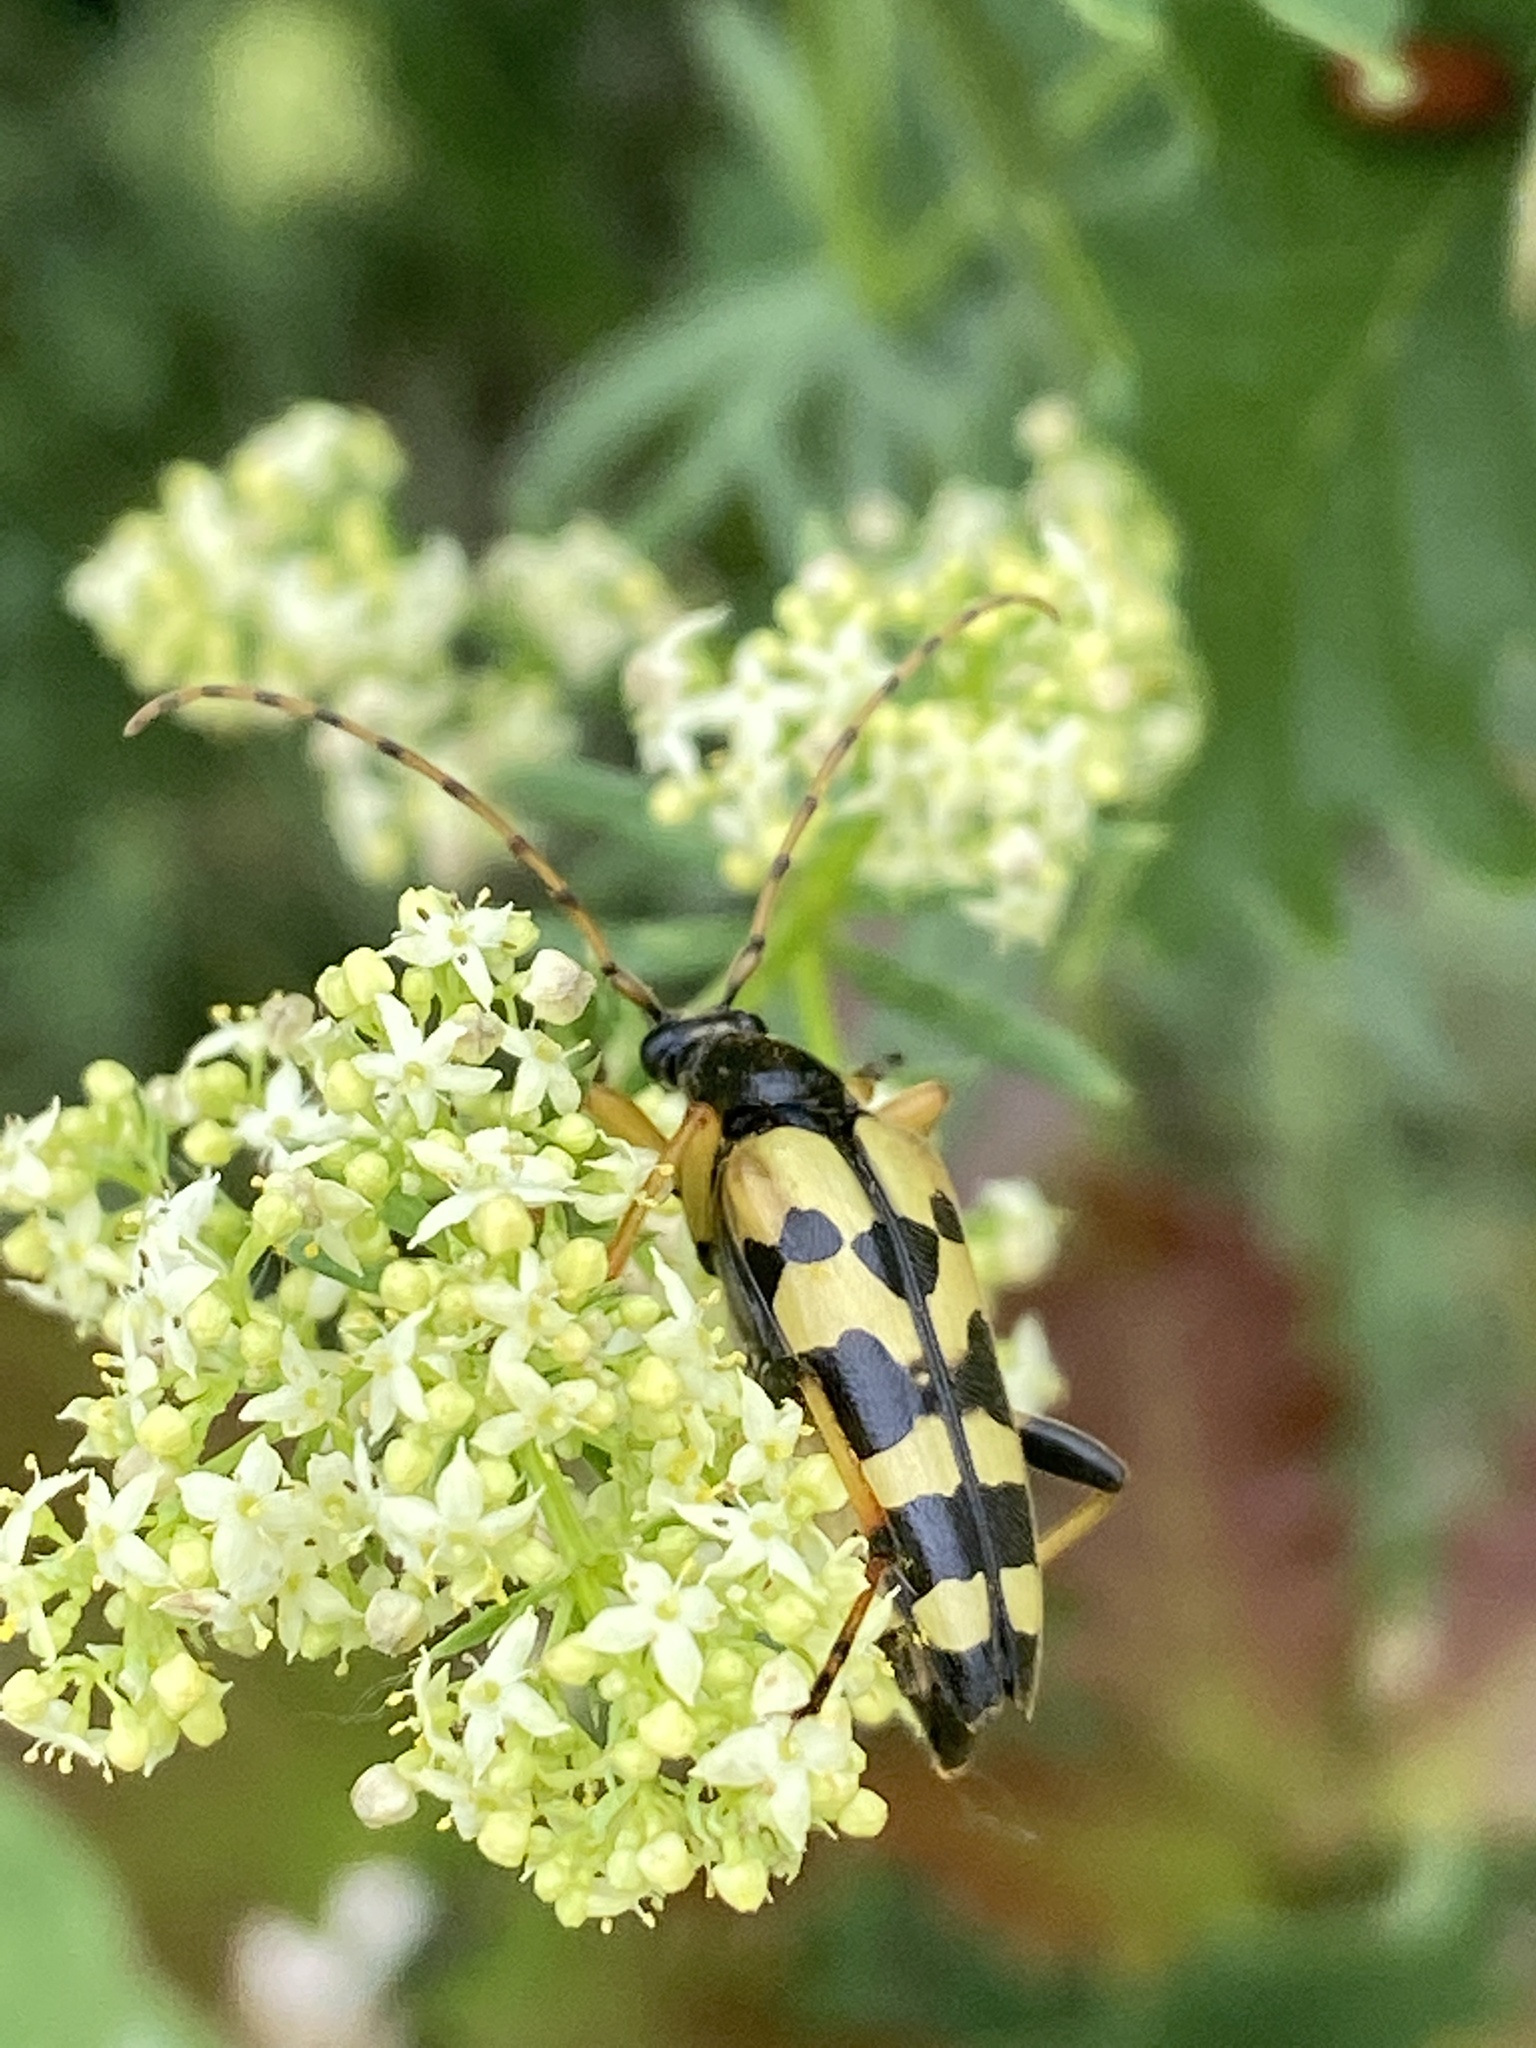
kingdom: Animalia
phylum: Arthropoda
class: Insecta
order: Coleoptera
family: Cerambycidae
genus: Rutpela
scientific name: Rutpela maculata
